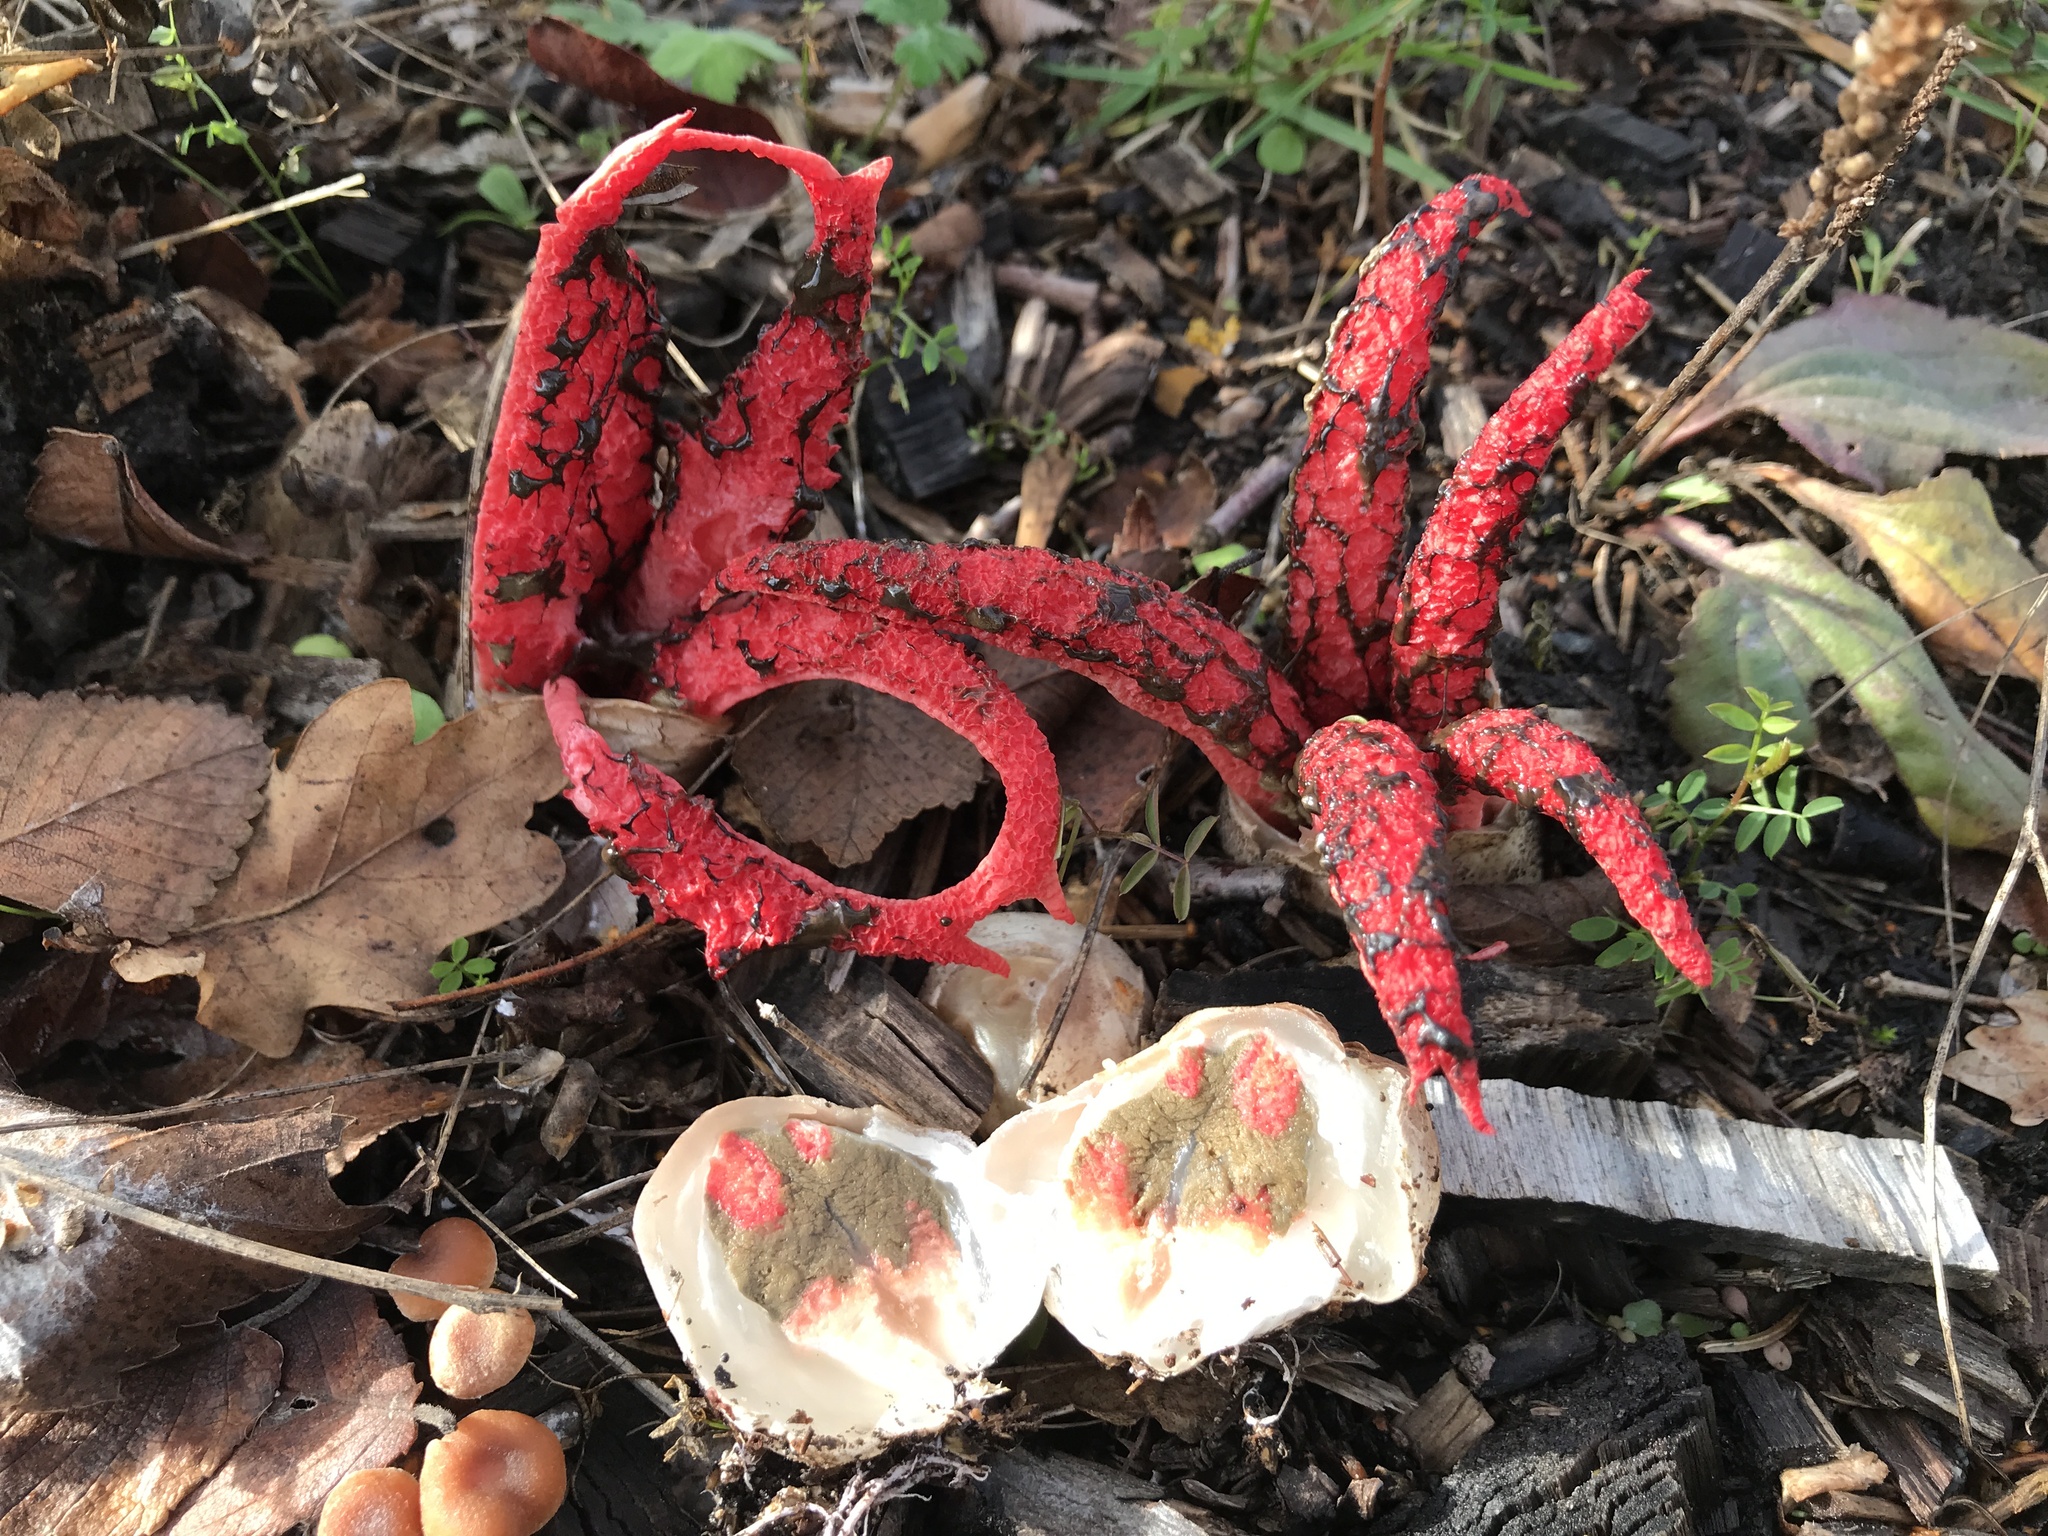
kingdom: Fungi
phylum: Basidiomycota
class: Agaricomycetes
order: Phallales
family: Phallaceae
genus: Clathrus
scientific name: Clathrus archeri
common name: Devil's fingers
